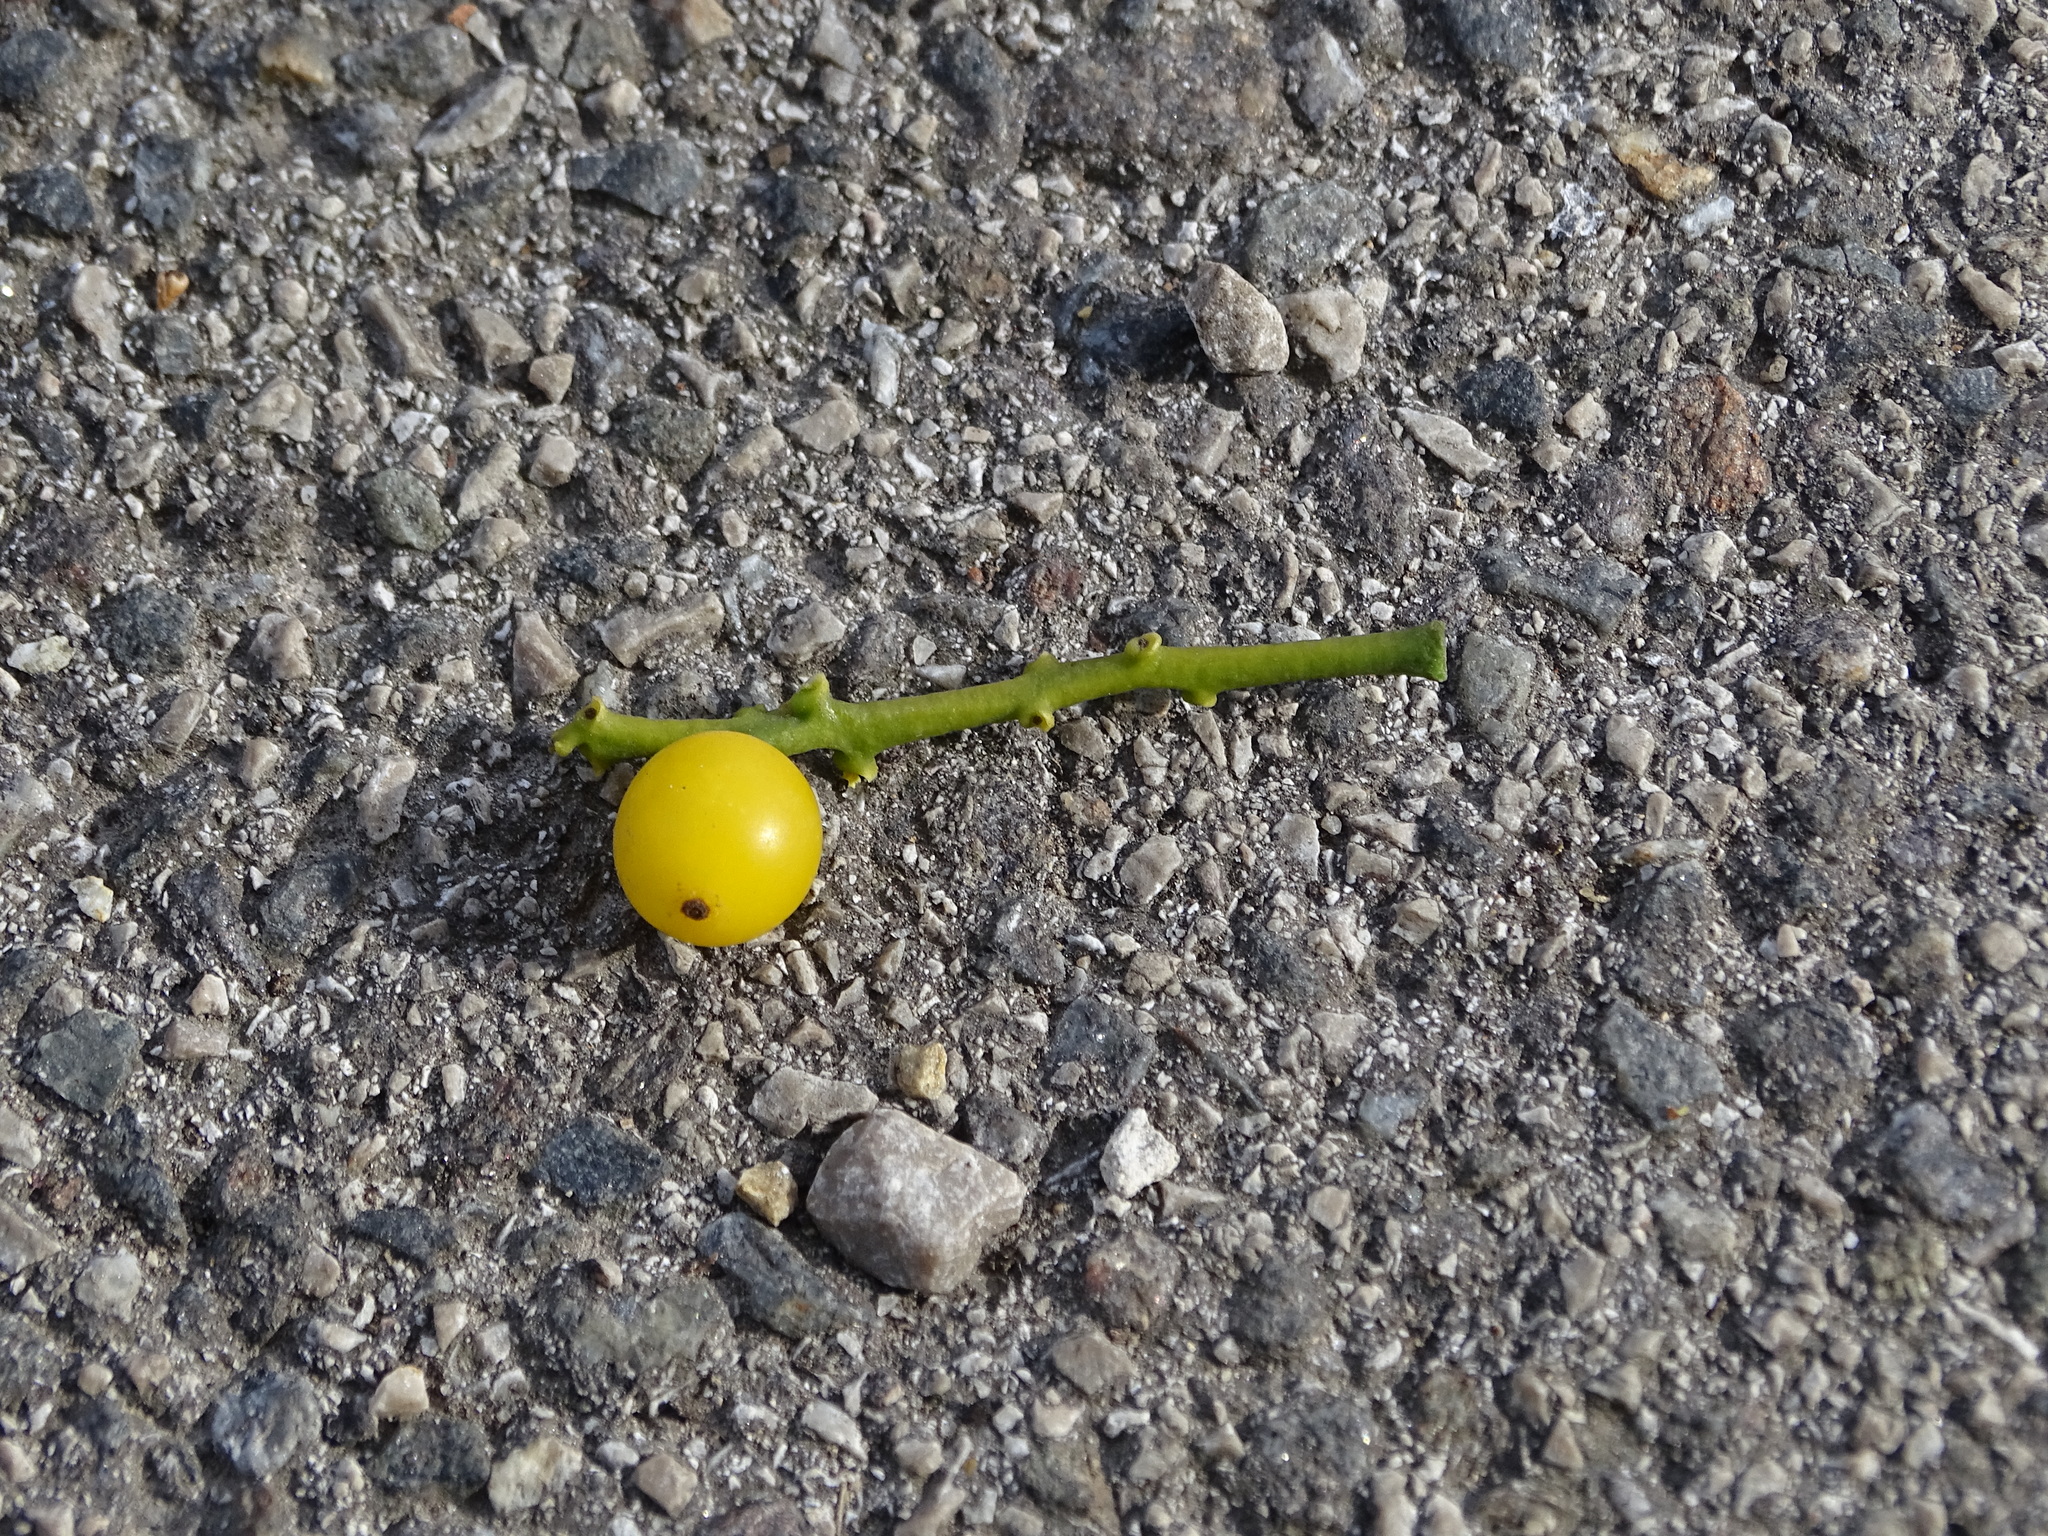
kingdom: Plantae
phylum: Tracheophyta
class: Magnoliopsida
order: Santalales
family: Loranthaceae
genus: Loranthus
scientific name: Loranthus europaeus
